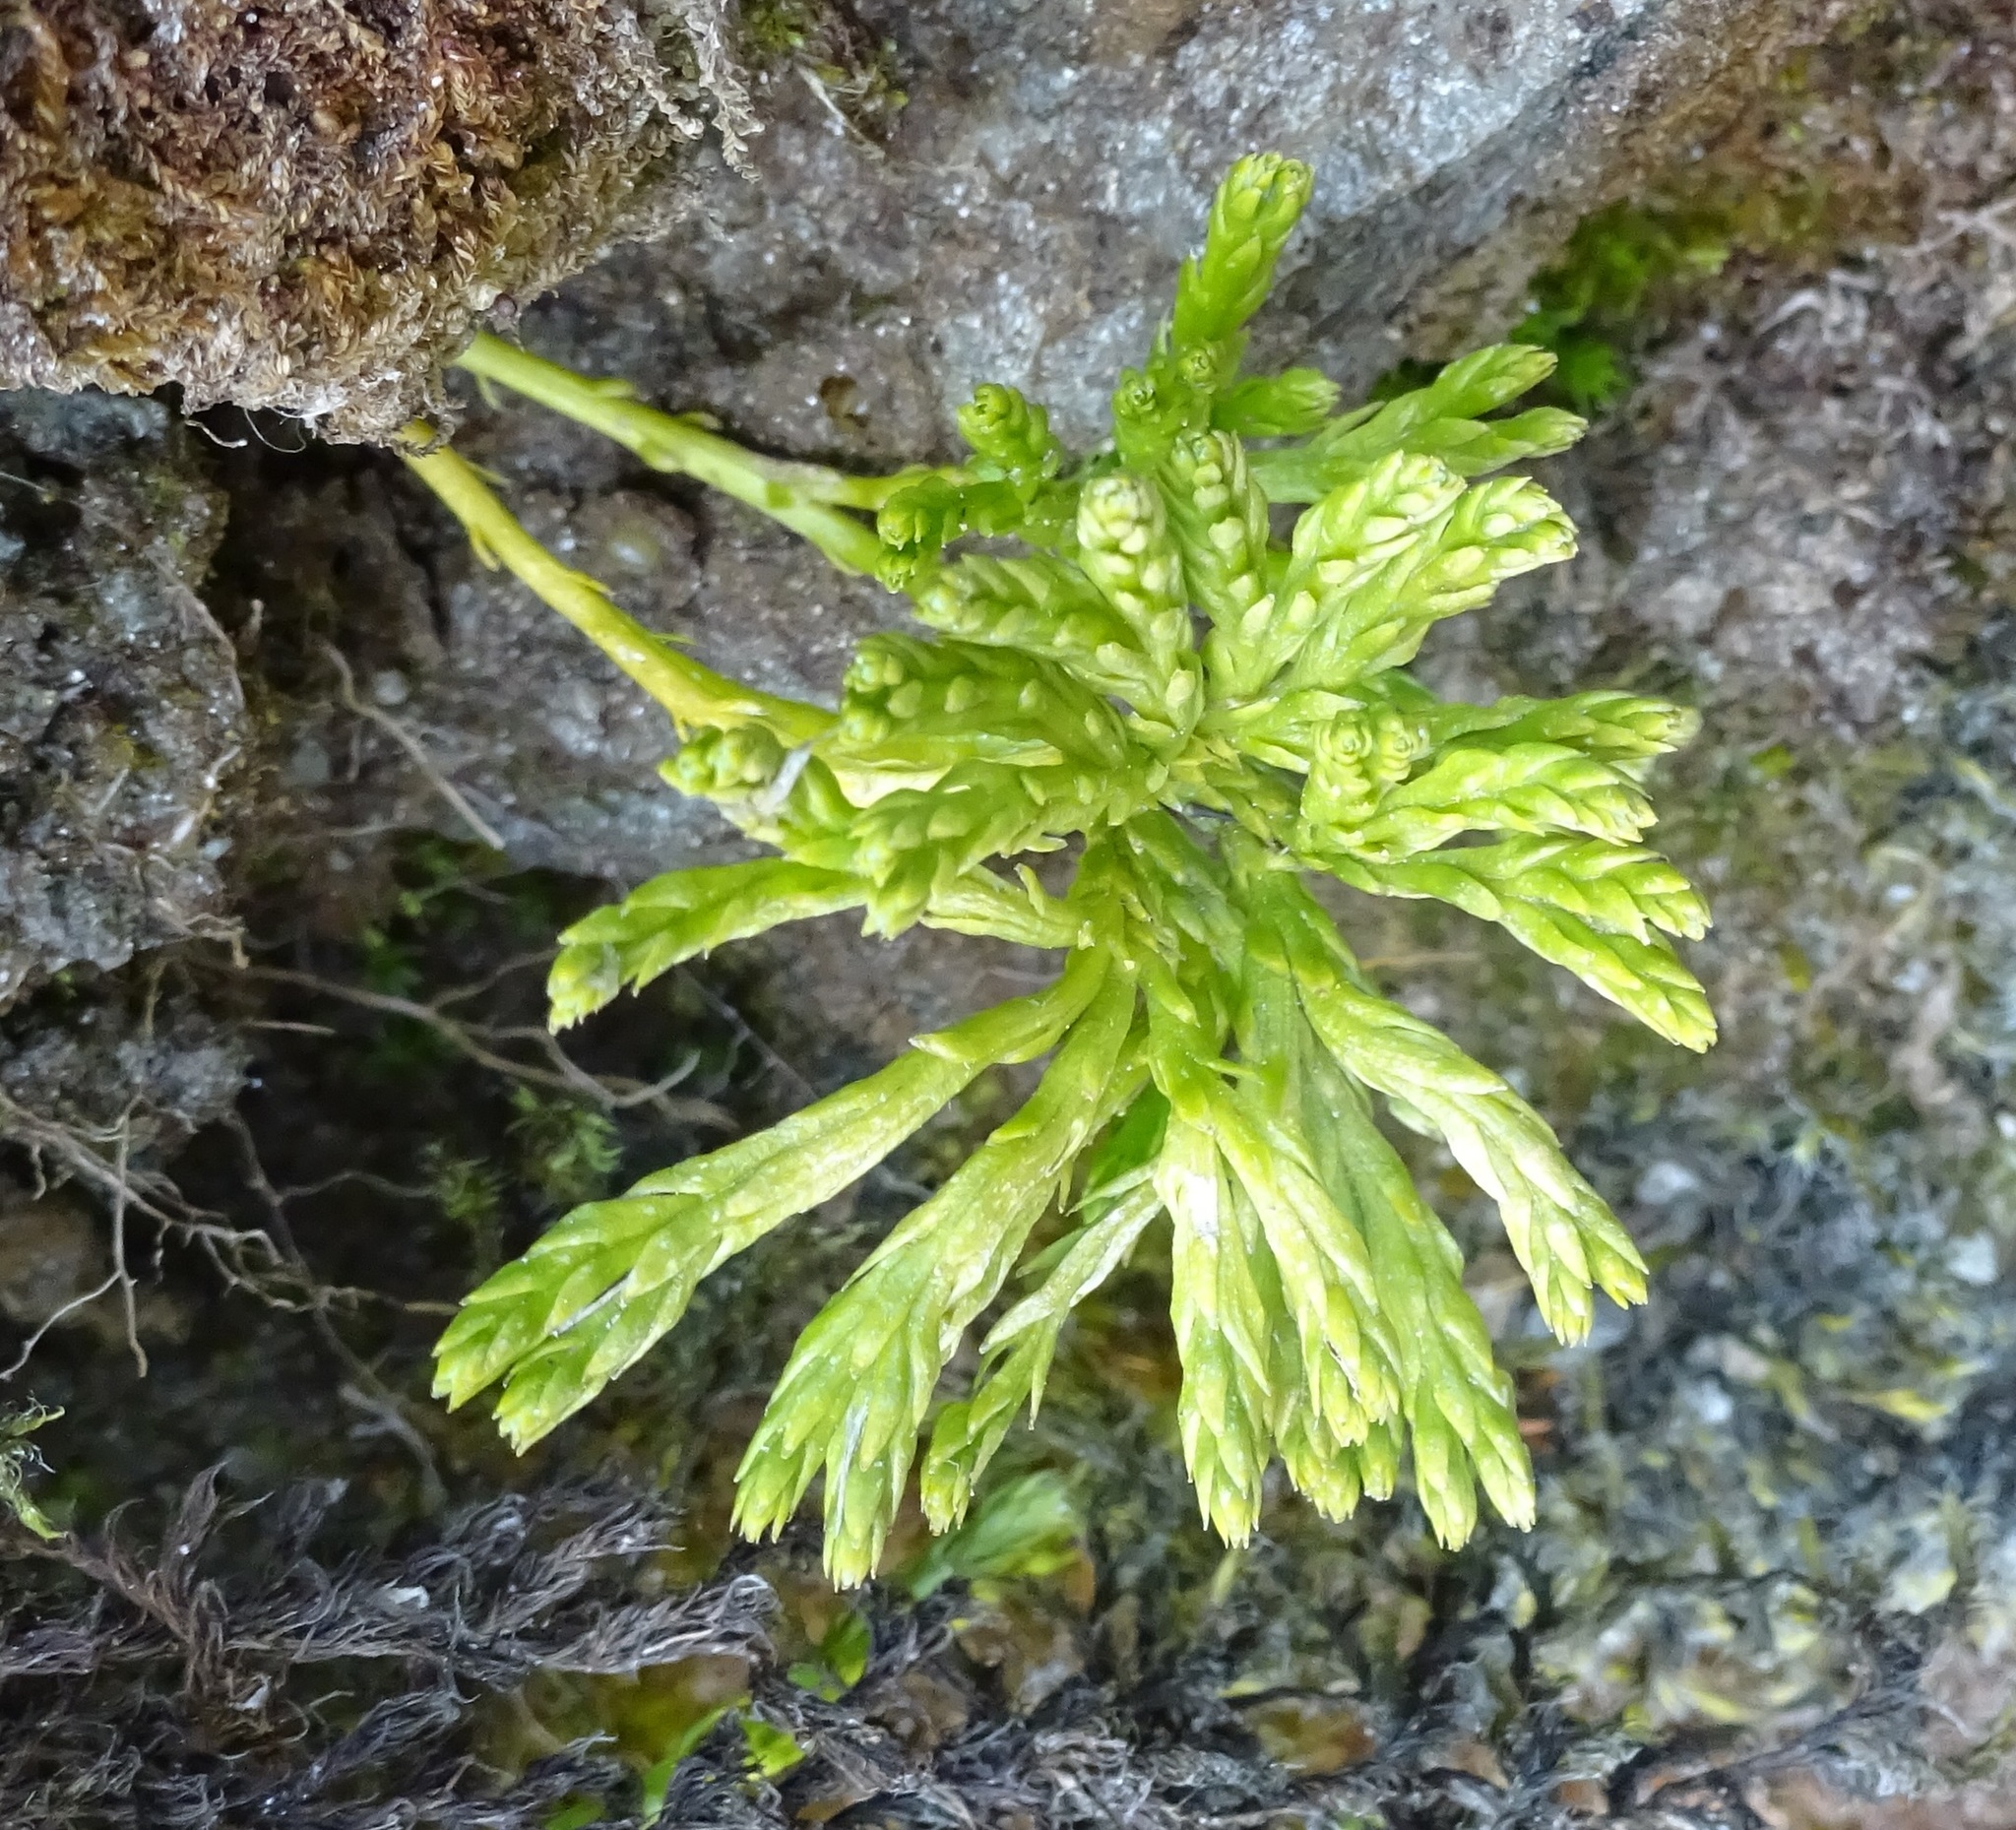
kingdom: Plantae
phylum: Tracheophyta
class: Lycopodiopsida
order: Lycopodiales
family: Lycopodiaceae
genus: Diphasiastrum
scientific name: Diphasiastrum alpinum
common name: Alpine clubmoss
